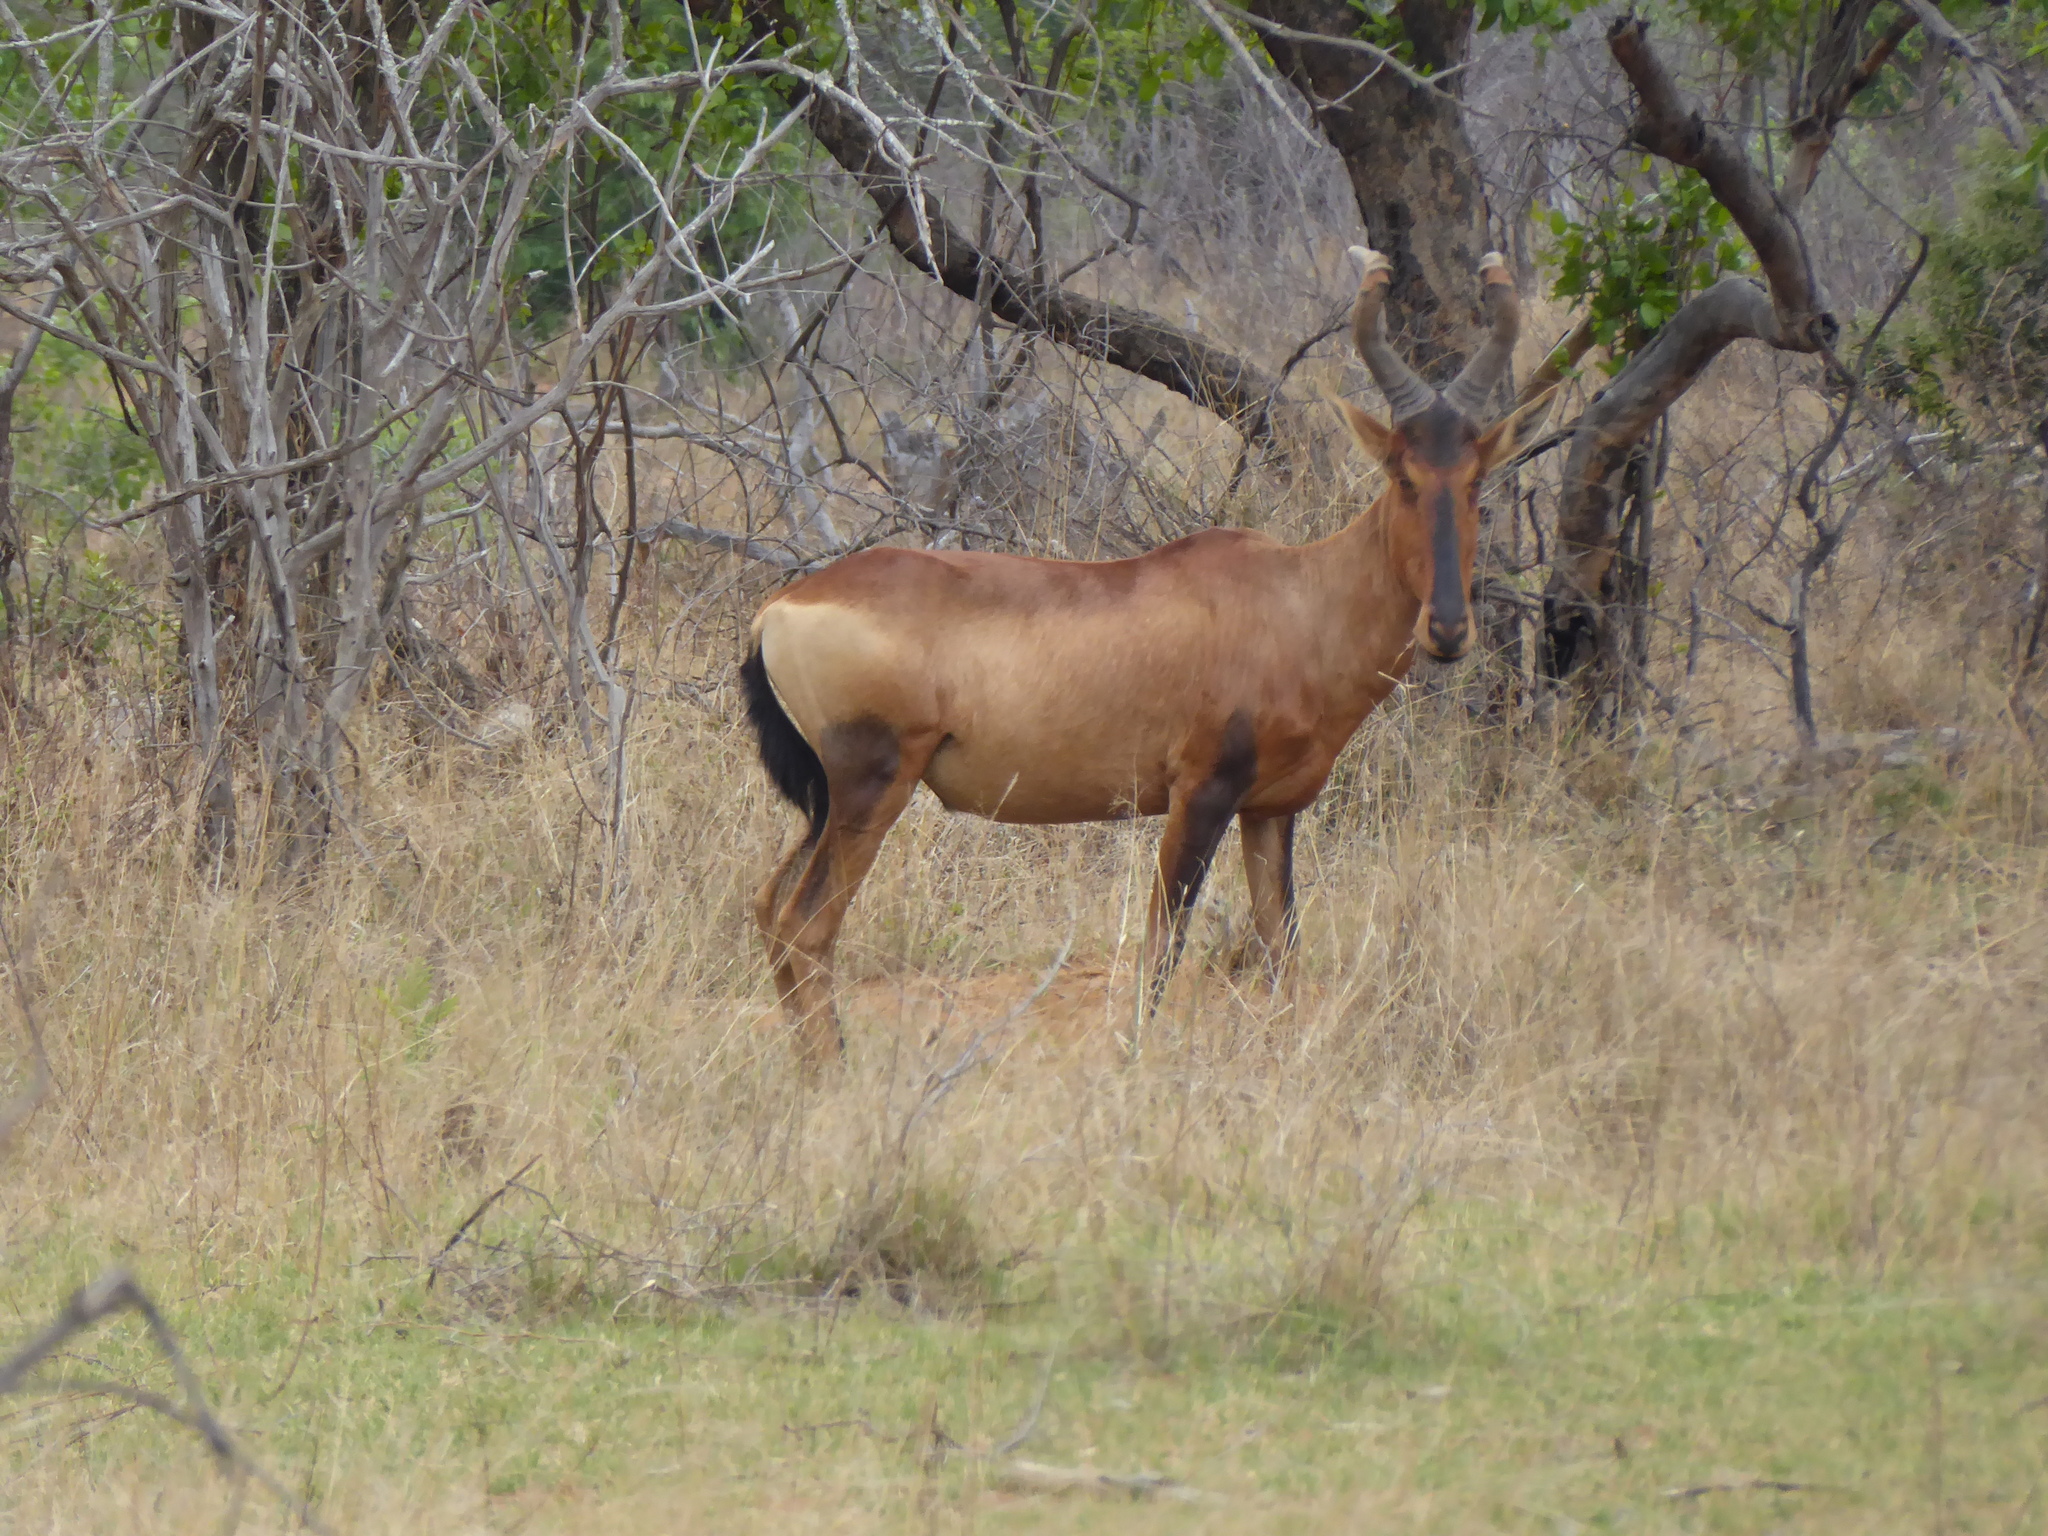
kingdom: Animalia
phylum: Chordata
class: Mammalia
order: Artiodactyla
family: Bovidae
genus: Alcelaphus
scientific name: Alcelaphus caama
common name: Red hartebeest
